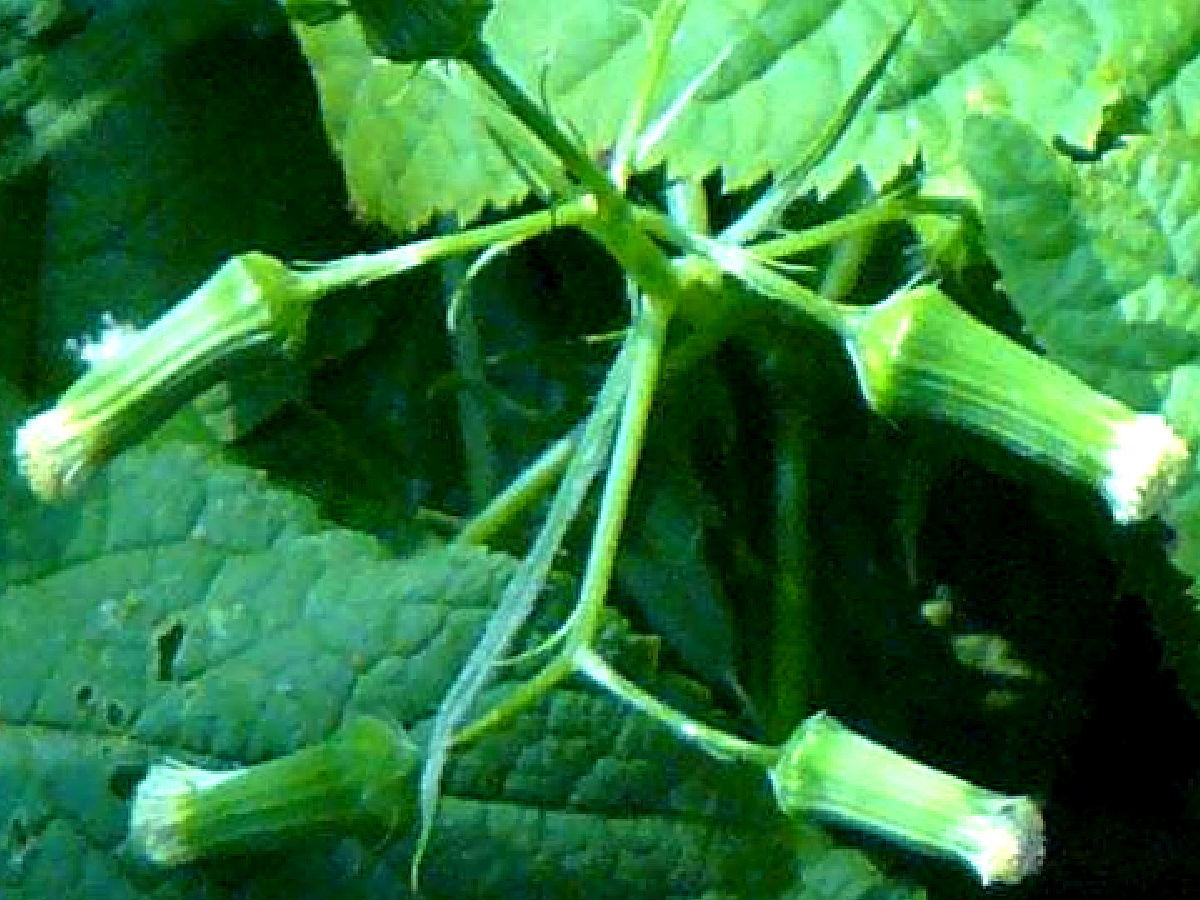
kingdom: Plantae
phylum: Tracheophyta
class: Magnoliopsida
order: Asterales
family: Asteraceae
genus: Erechtites
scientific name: Erechtites hieraciifolius
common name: American burnweed
